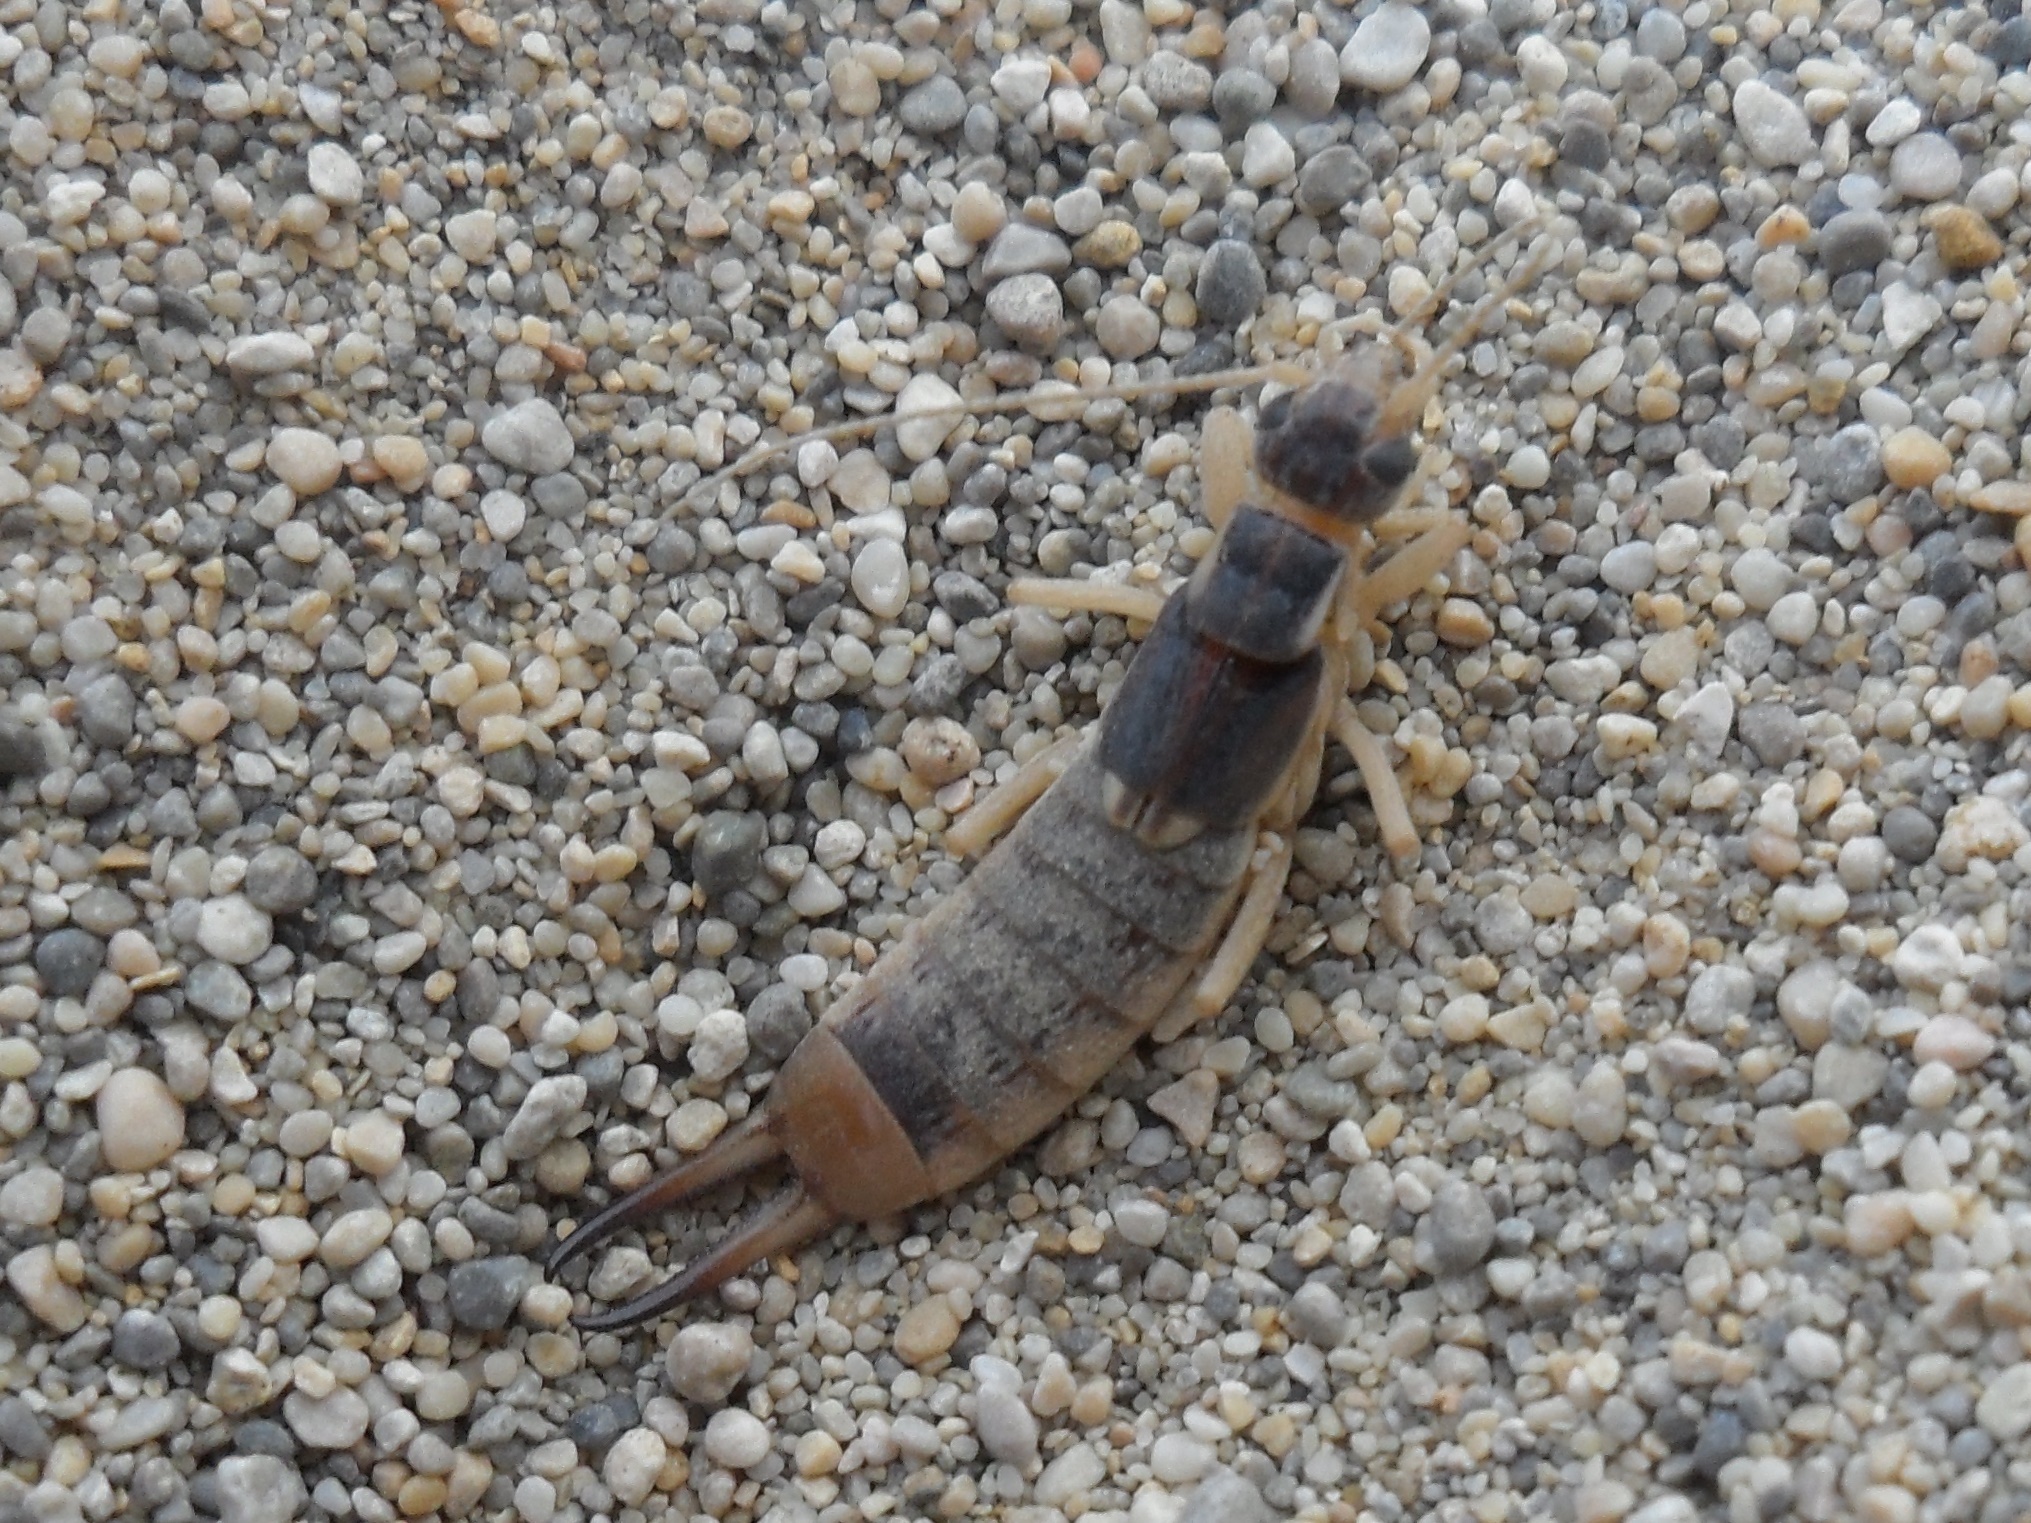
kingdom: Animalia
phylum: Arthropoda
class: Insecta
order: Dermaptera
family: Labiduridae
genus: Labidura
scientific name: Labidura riparia
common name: Striped earwig
